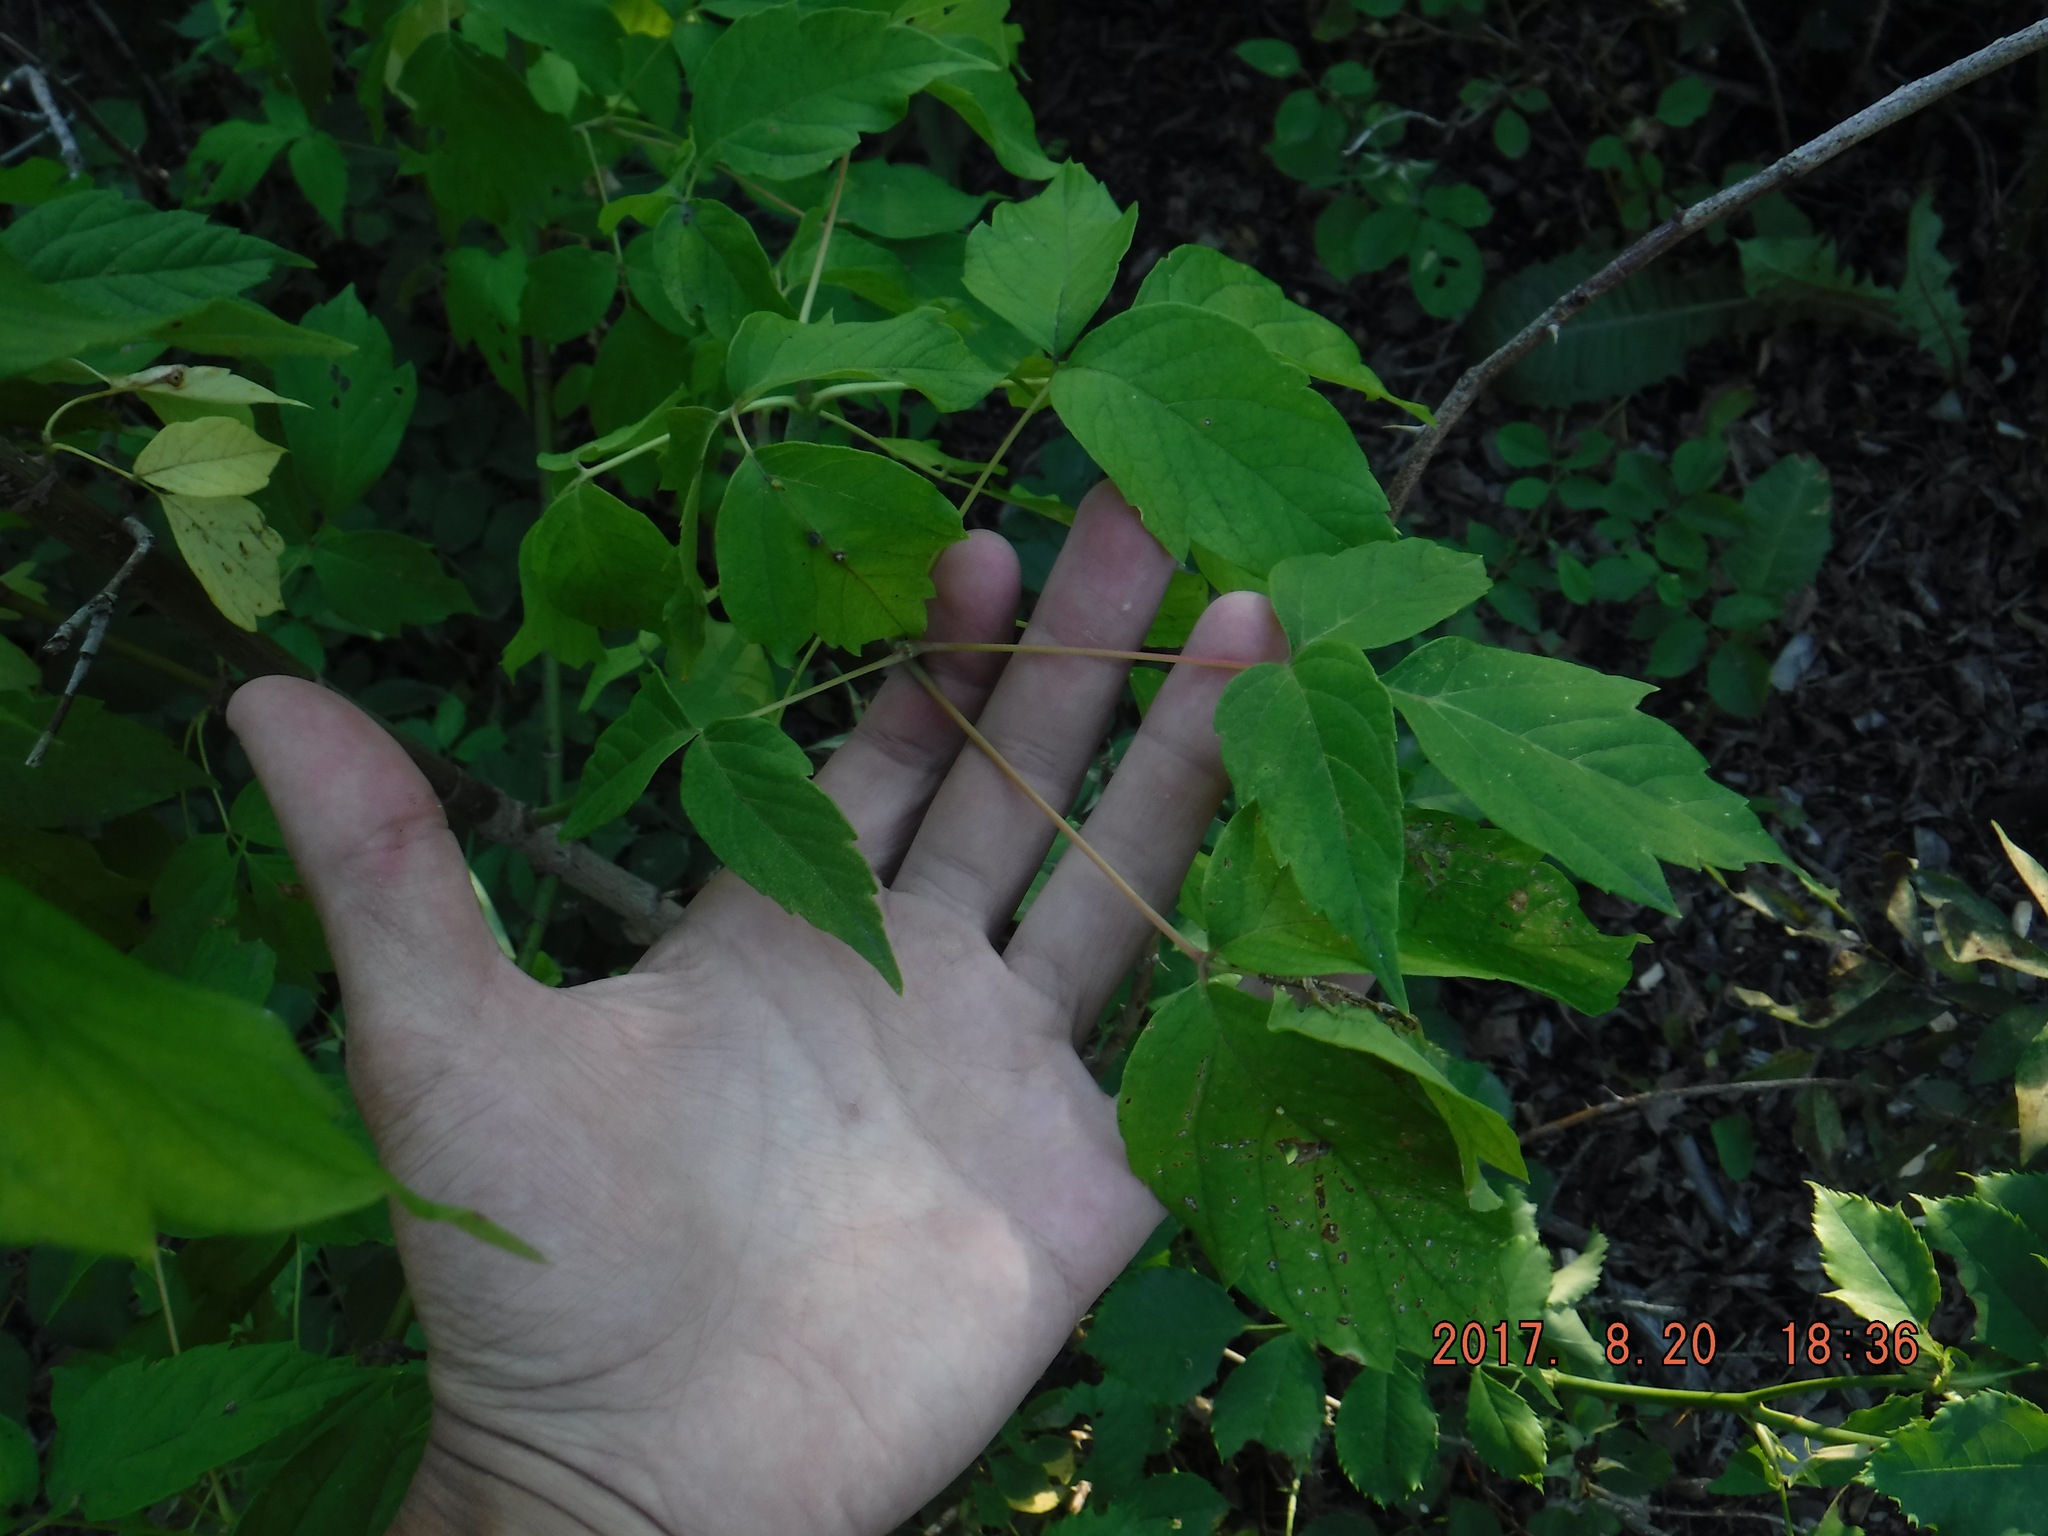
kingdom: Plantae
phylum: Tracheophyta
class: Magnoliopsida
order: Sapindales
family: Sapindaceae
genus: Acer
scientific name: Acer negundo
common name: Ashleaf maple
